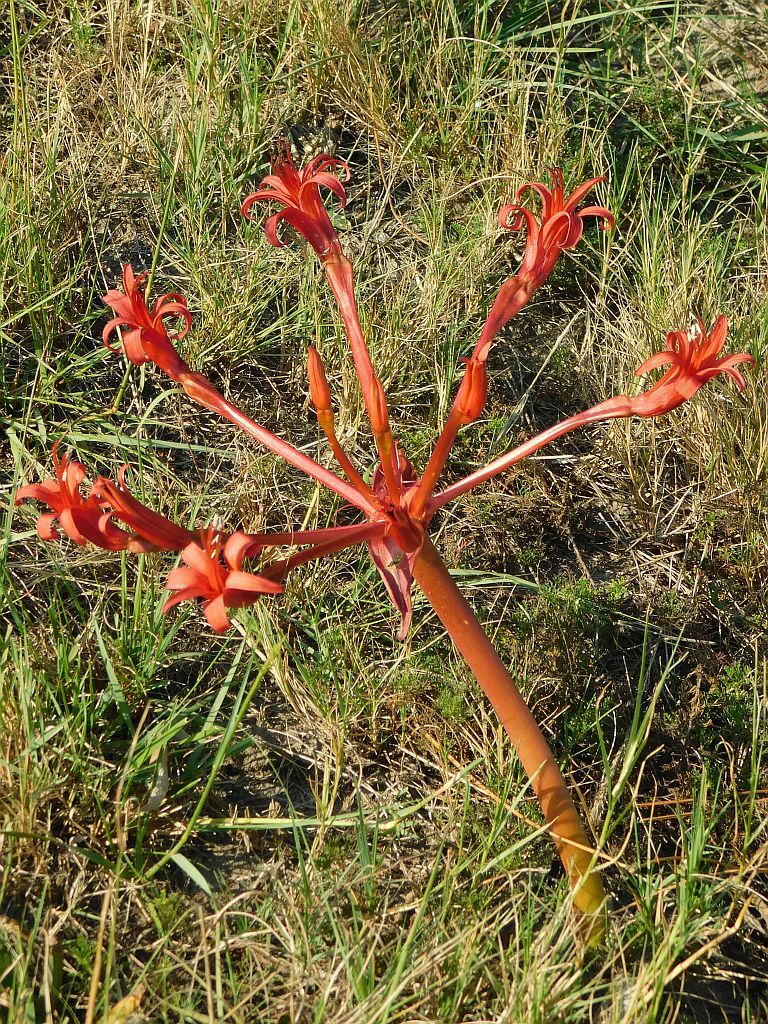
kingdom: Plantae
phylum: Tracheophyta
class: Liliopsida
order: Asparagales
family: Amaryllidaceae
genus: Brunsvigia
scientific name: Brunsvigia orientalis
